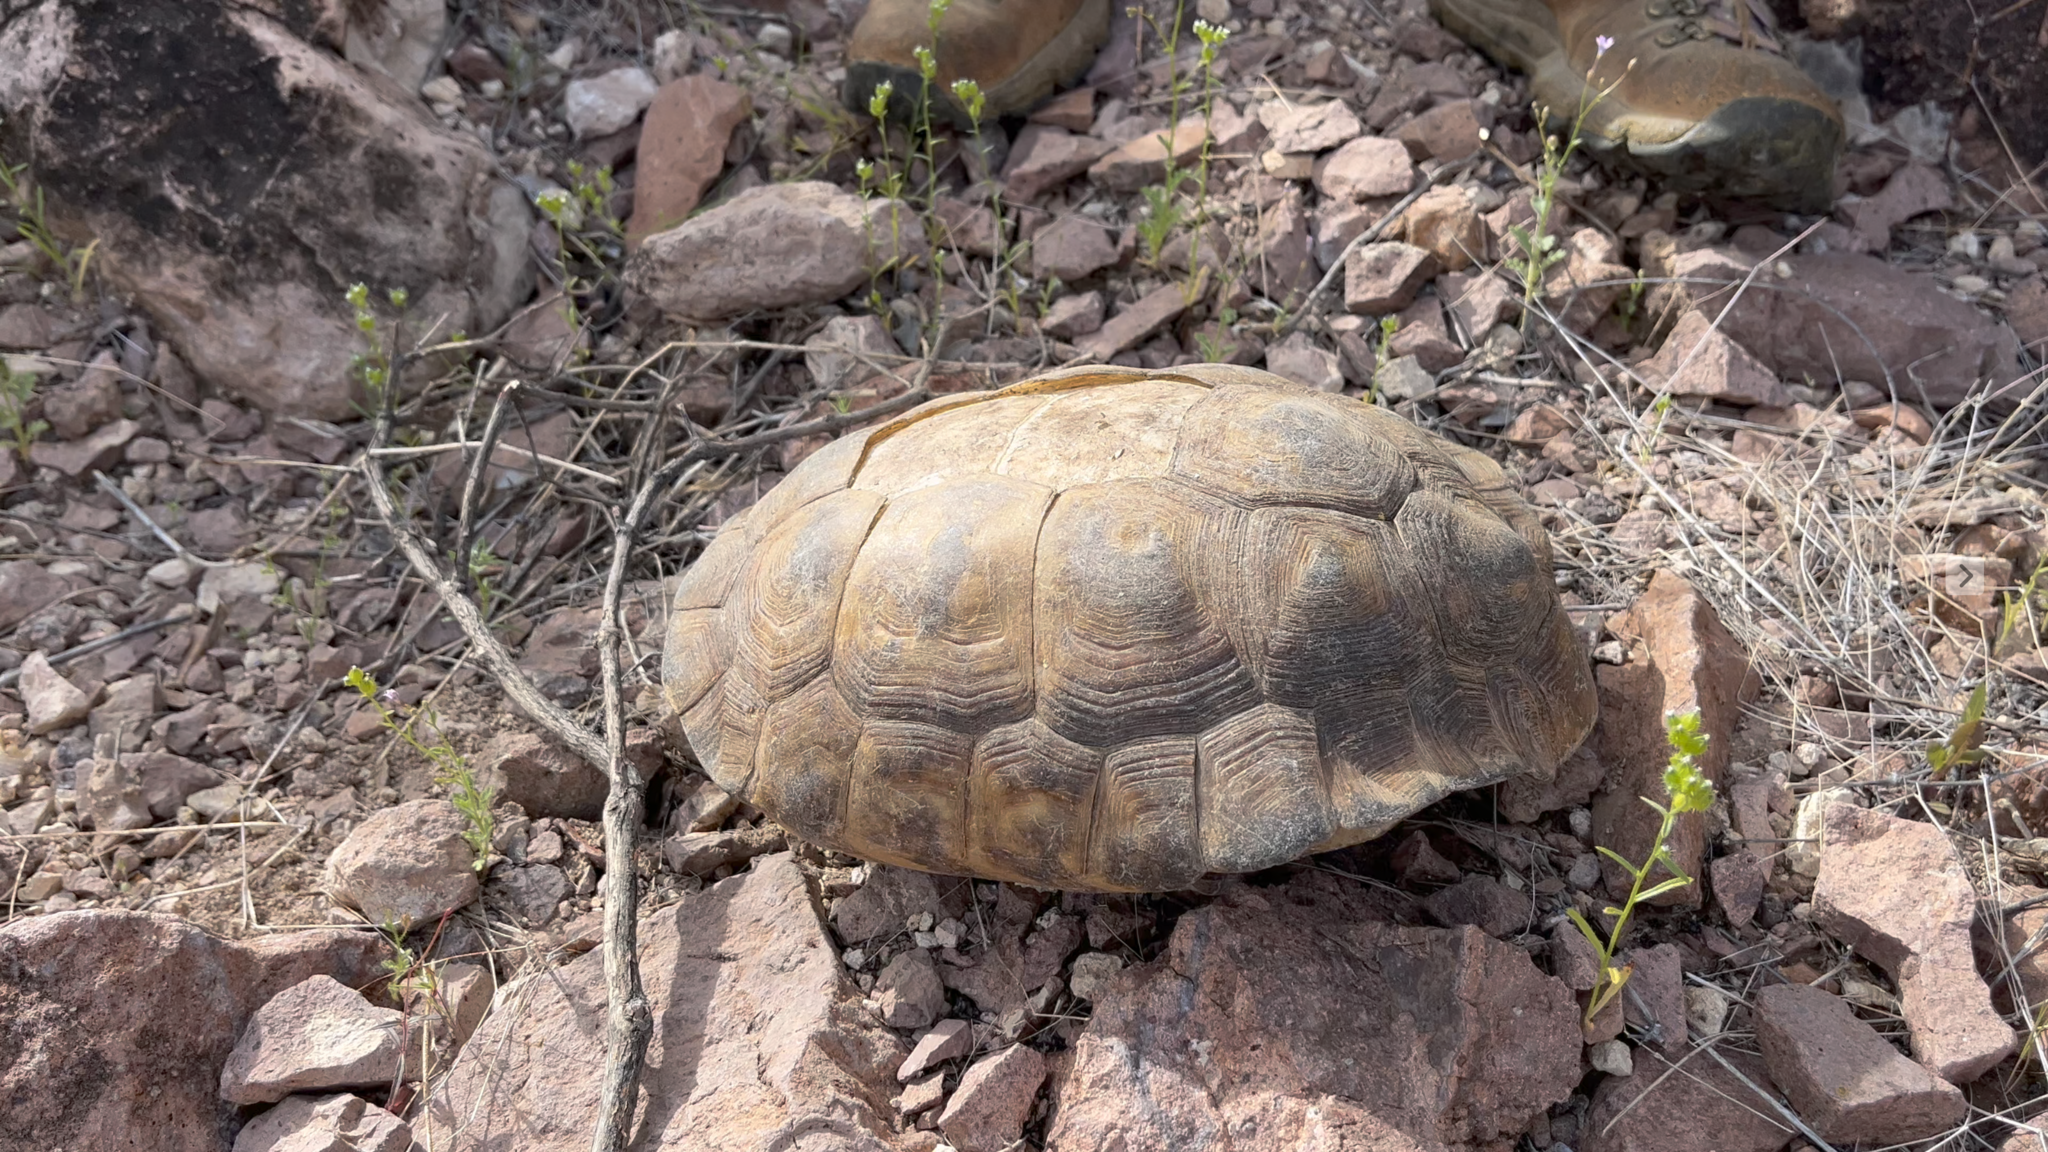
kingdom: Animalia
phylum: Chordata
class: Testudines
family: Testudinidae
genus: Gopherus
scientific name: Gopherus morafkai
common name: Sonoran desert tortoise
